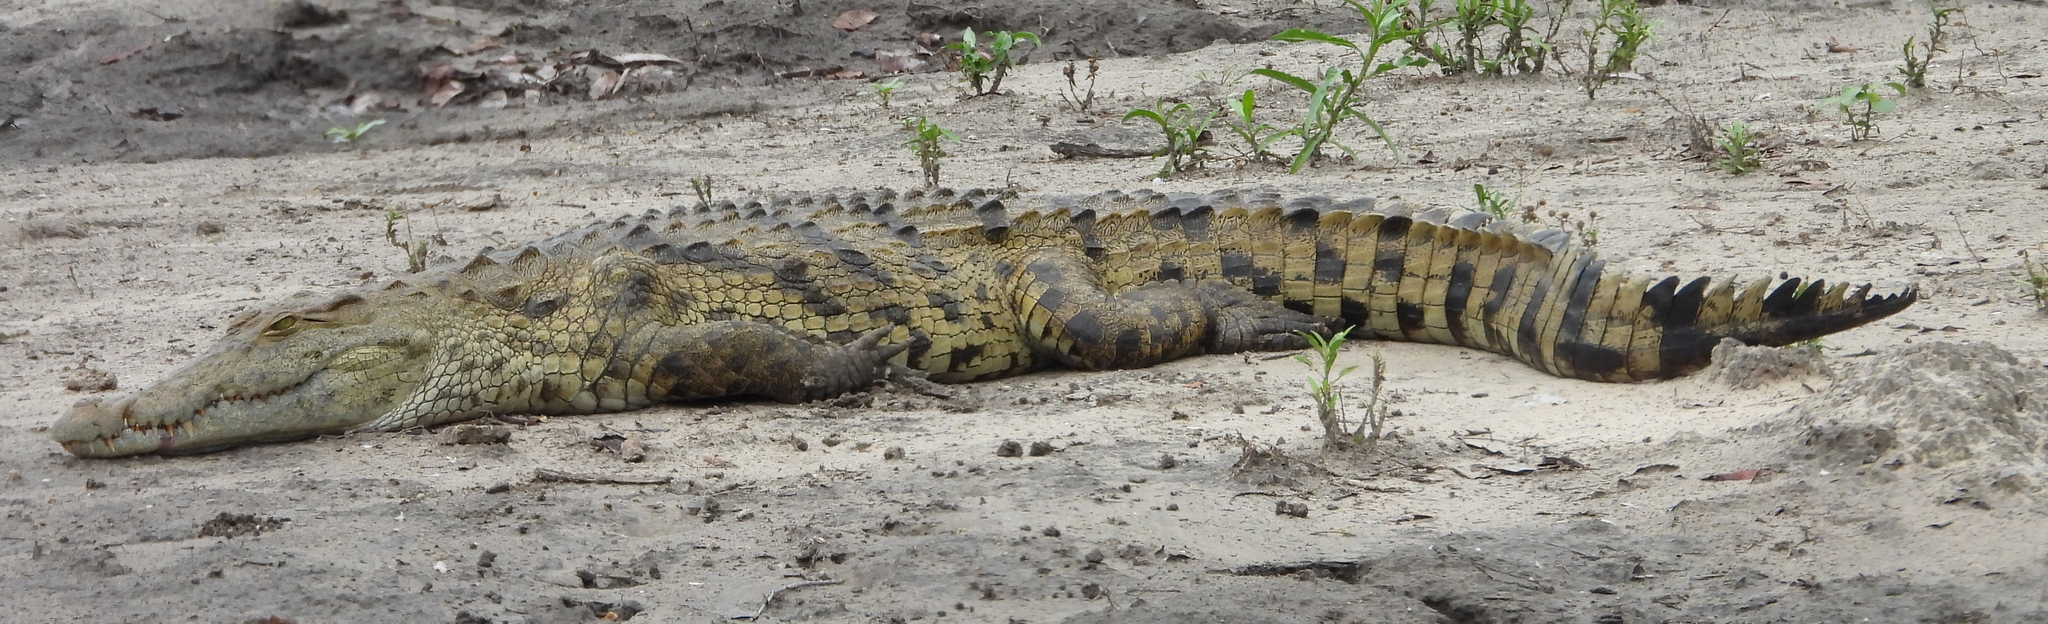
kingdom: Animalia
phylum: Chordata
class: Crocodylia
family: Crocodylidae
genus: Crocodylus
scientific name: Crocodylus niloticus
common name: Nile crocodile
